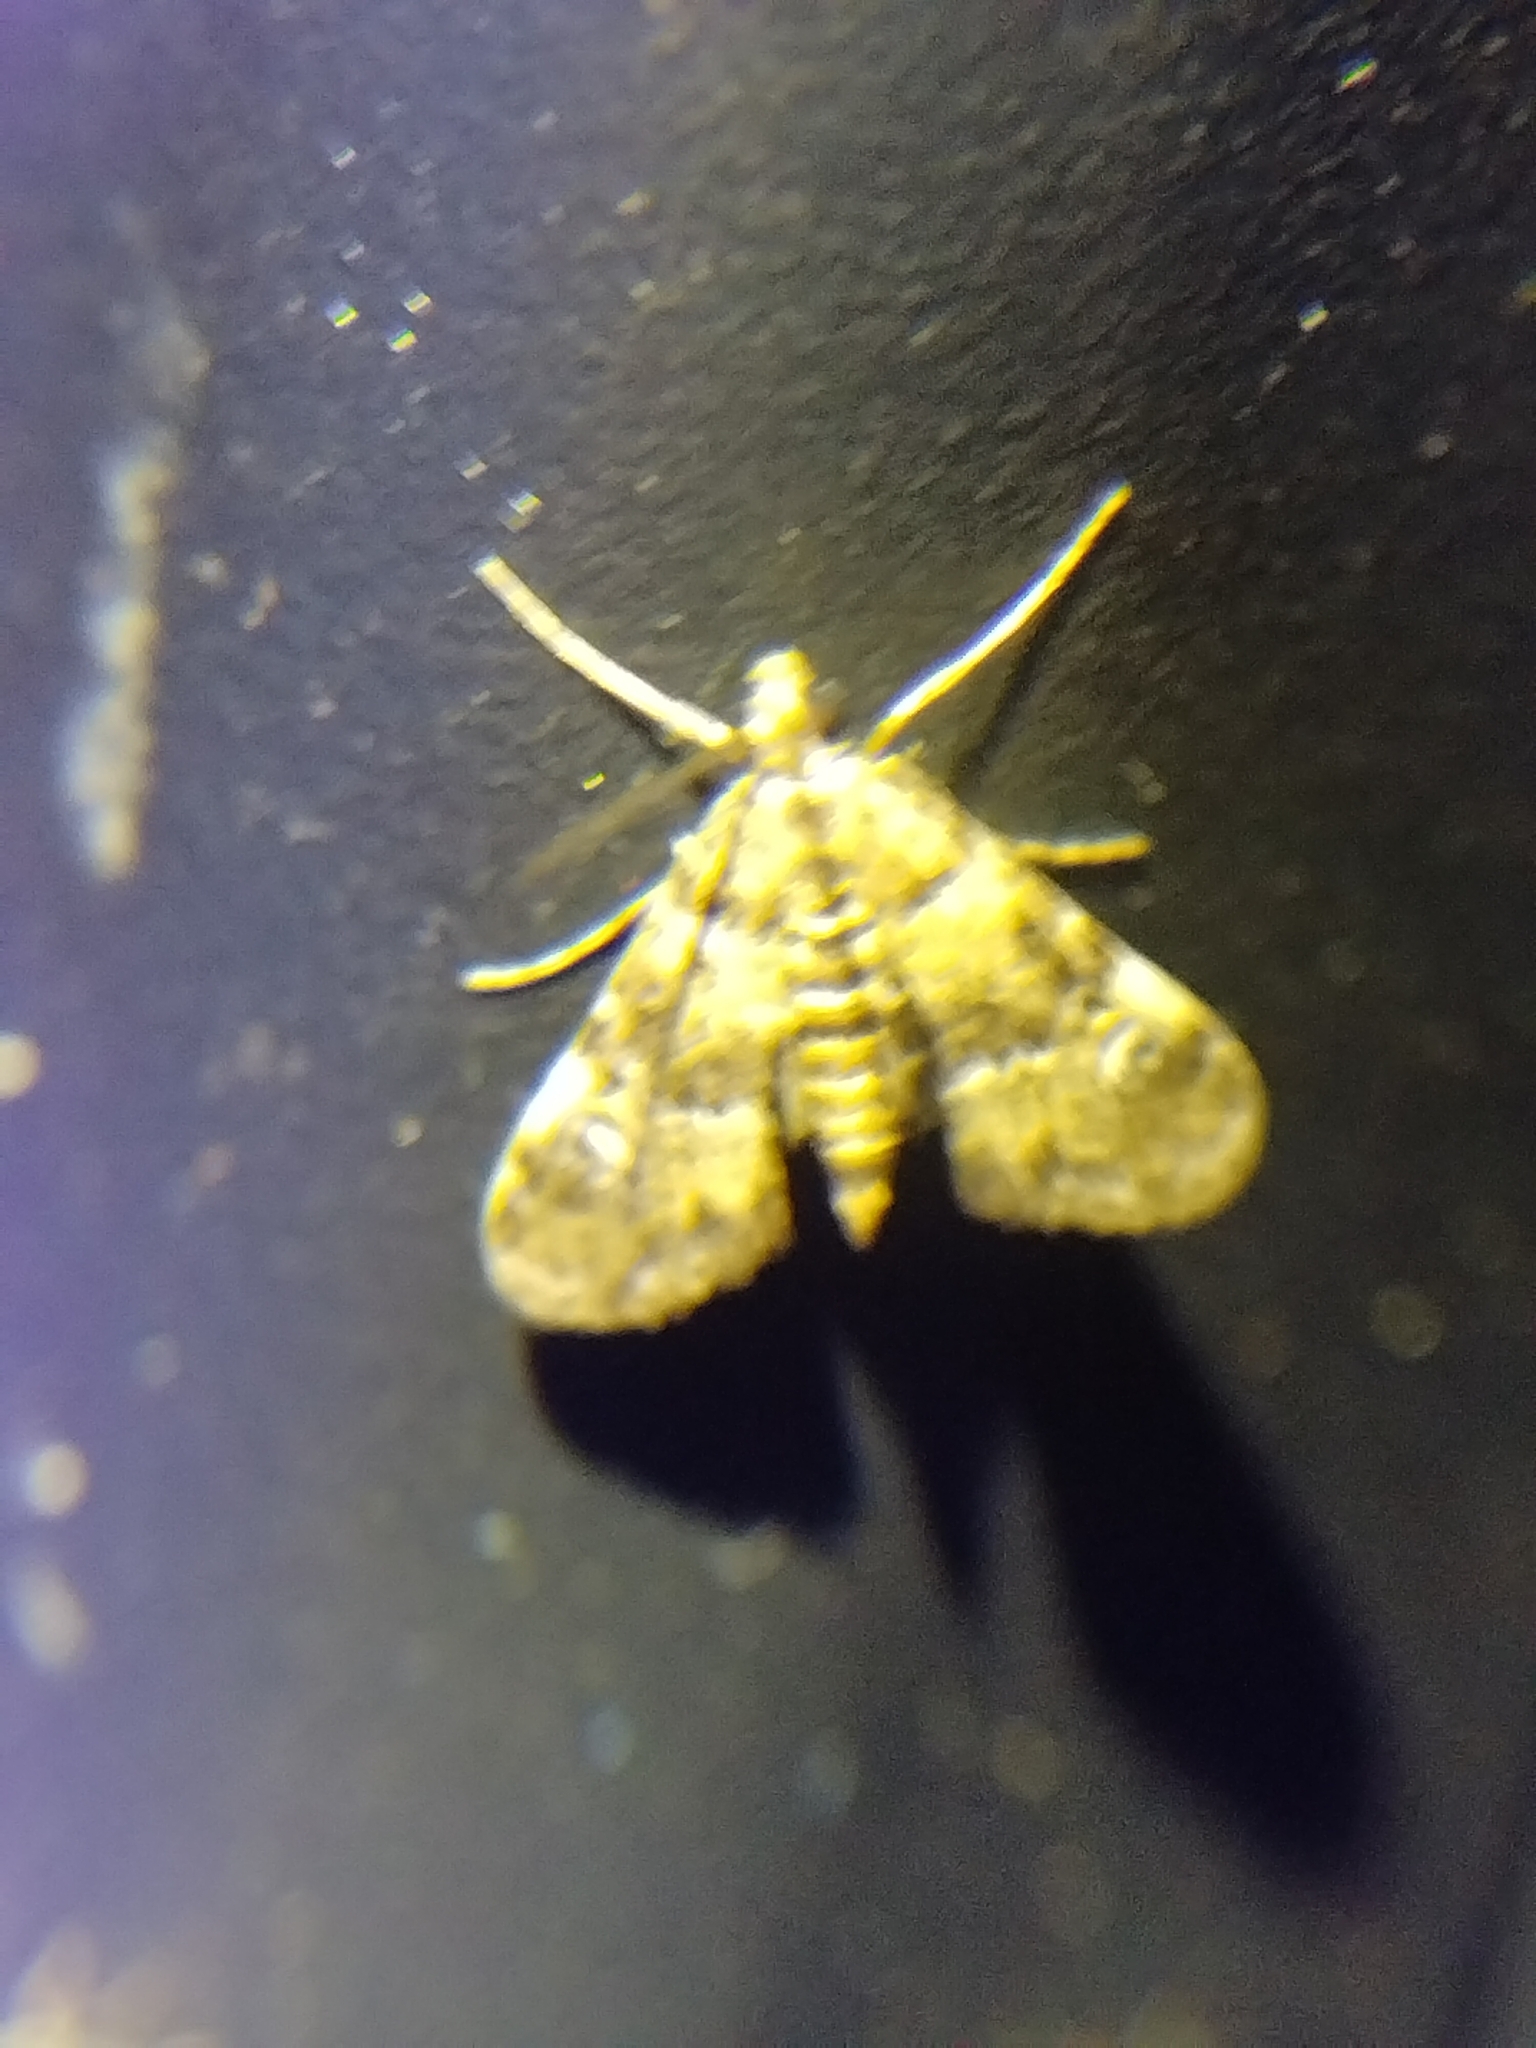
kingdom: Animalia
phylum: Arthropoda
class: Insecta
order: Lepidoptera
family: Crambidae
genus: Elophila
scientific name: Elophila obliteralis
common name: Waterlily leafcutter moth
